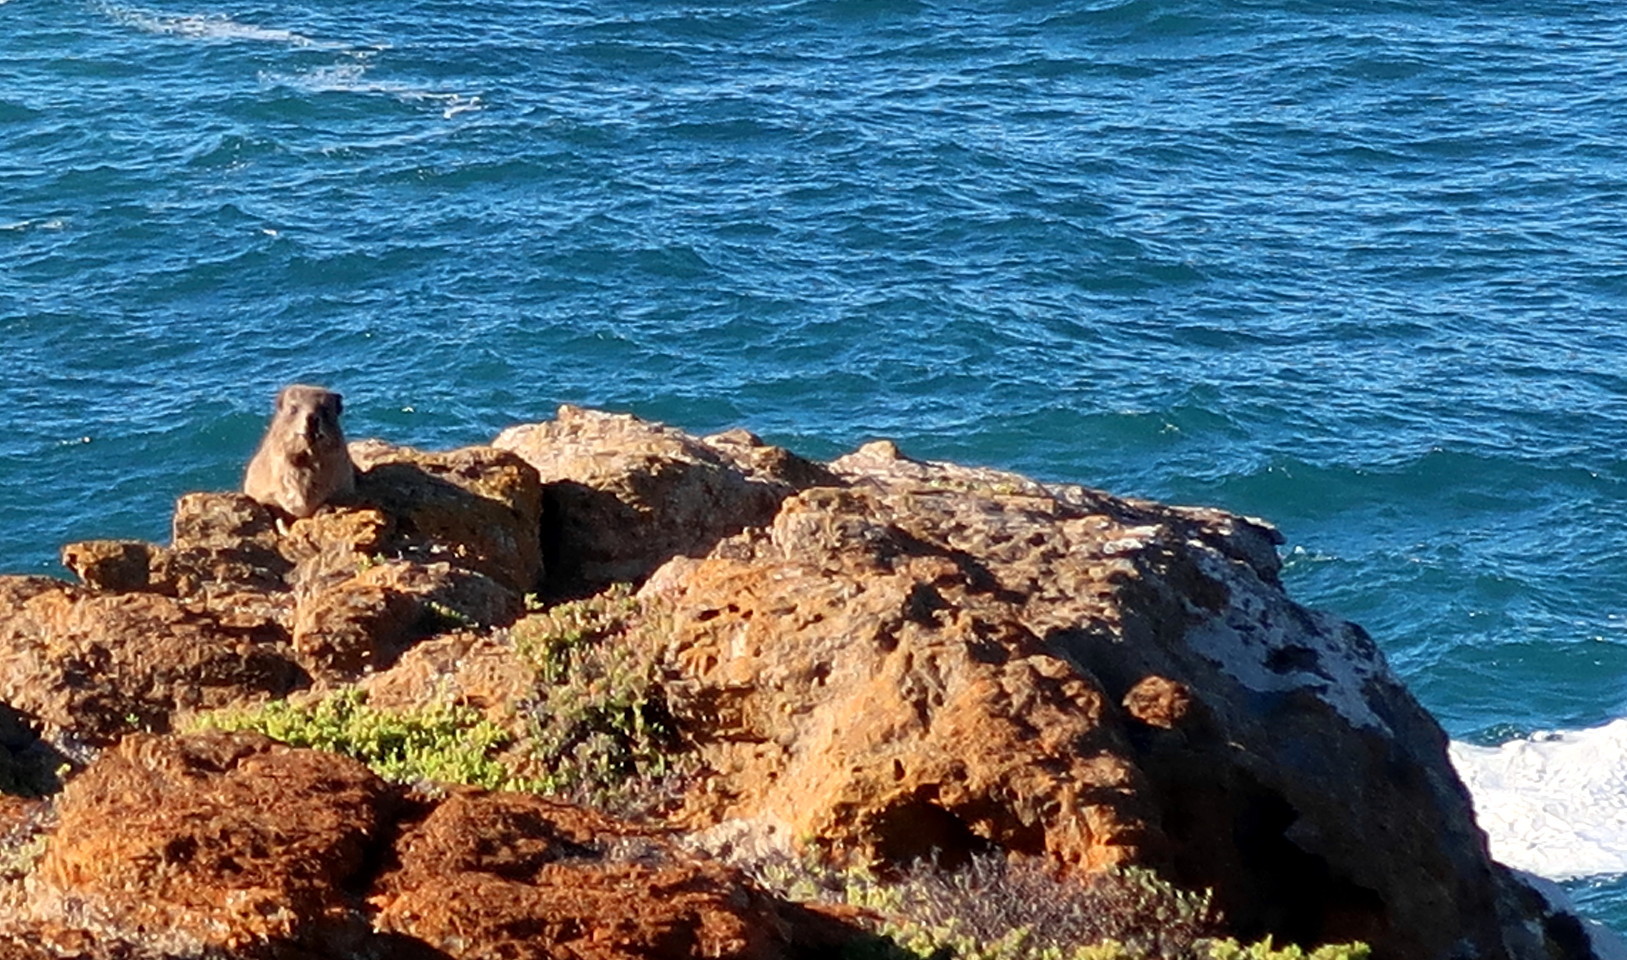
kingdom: Animalia
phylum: Chordata
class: Mammalia
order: Hyracoidea
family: Procaviidae
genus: Procavia
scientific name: Procavia capensis
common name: Rock hyrax
